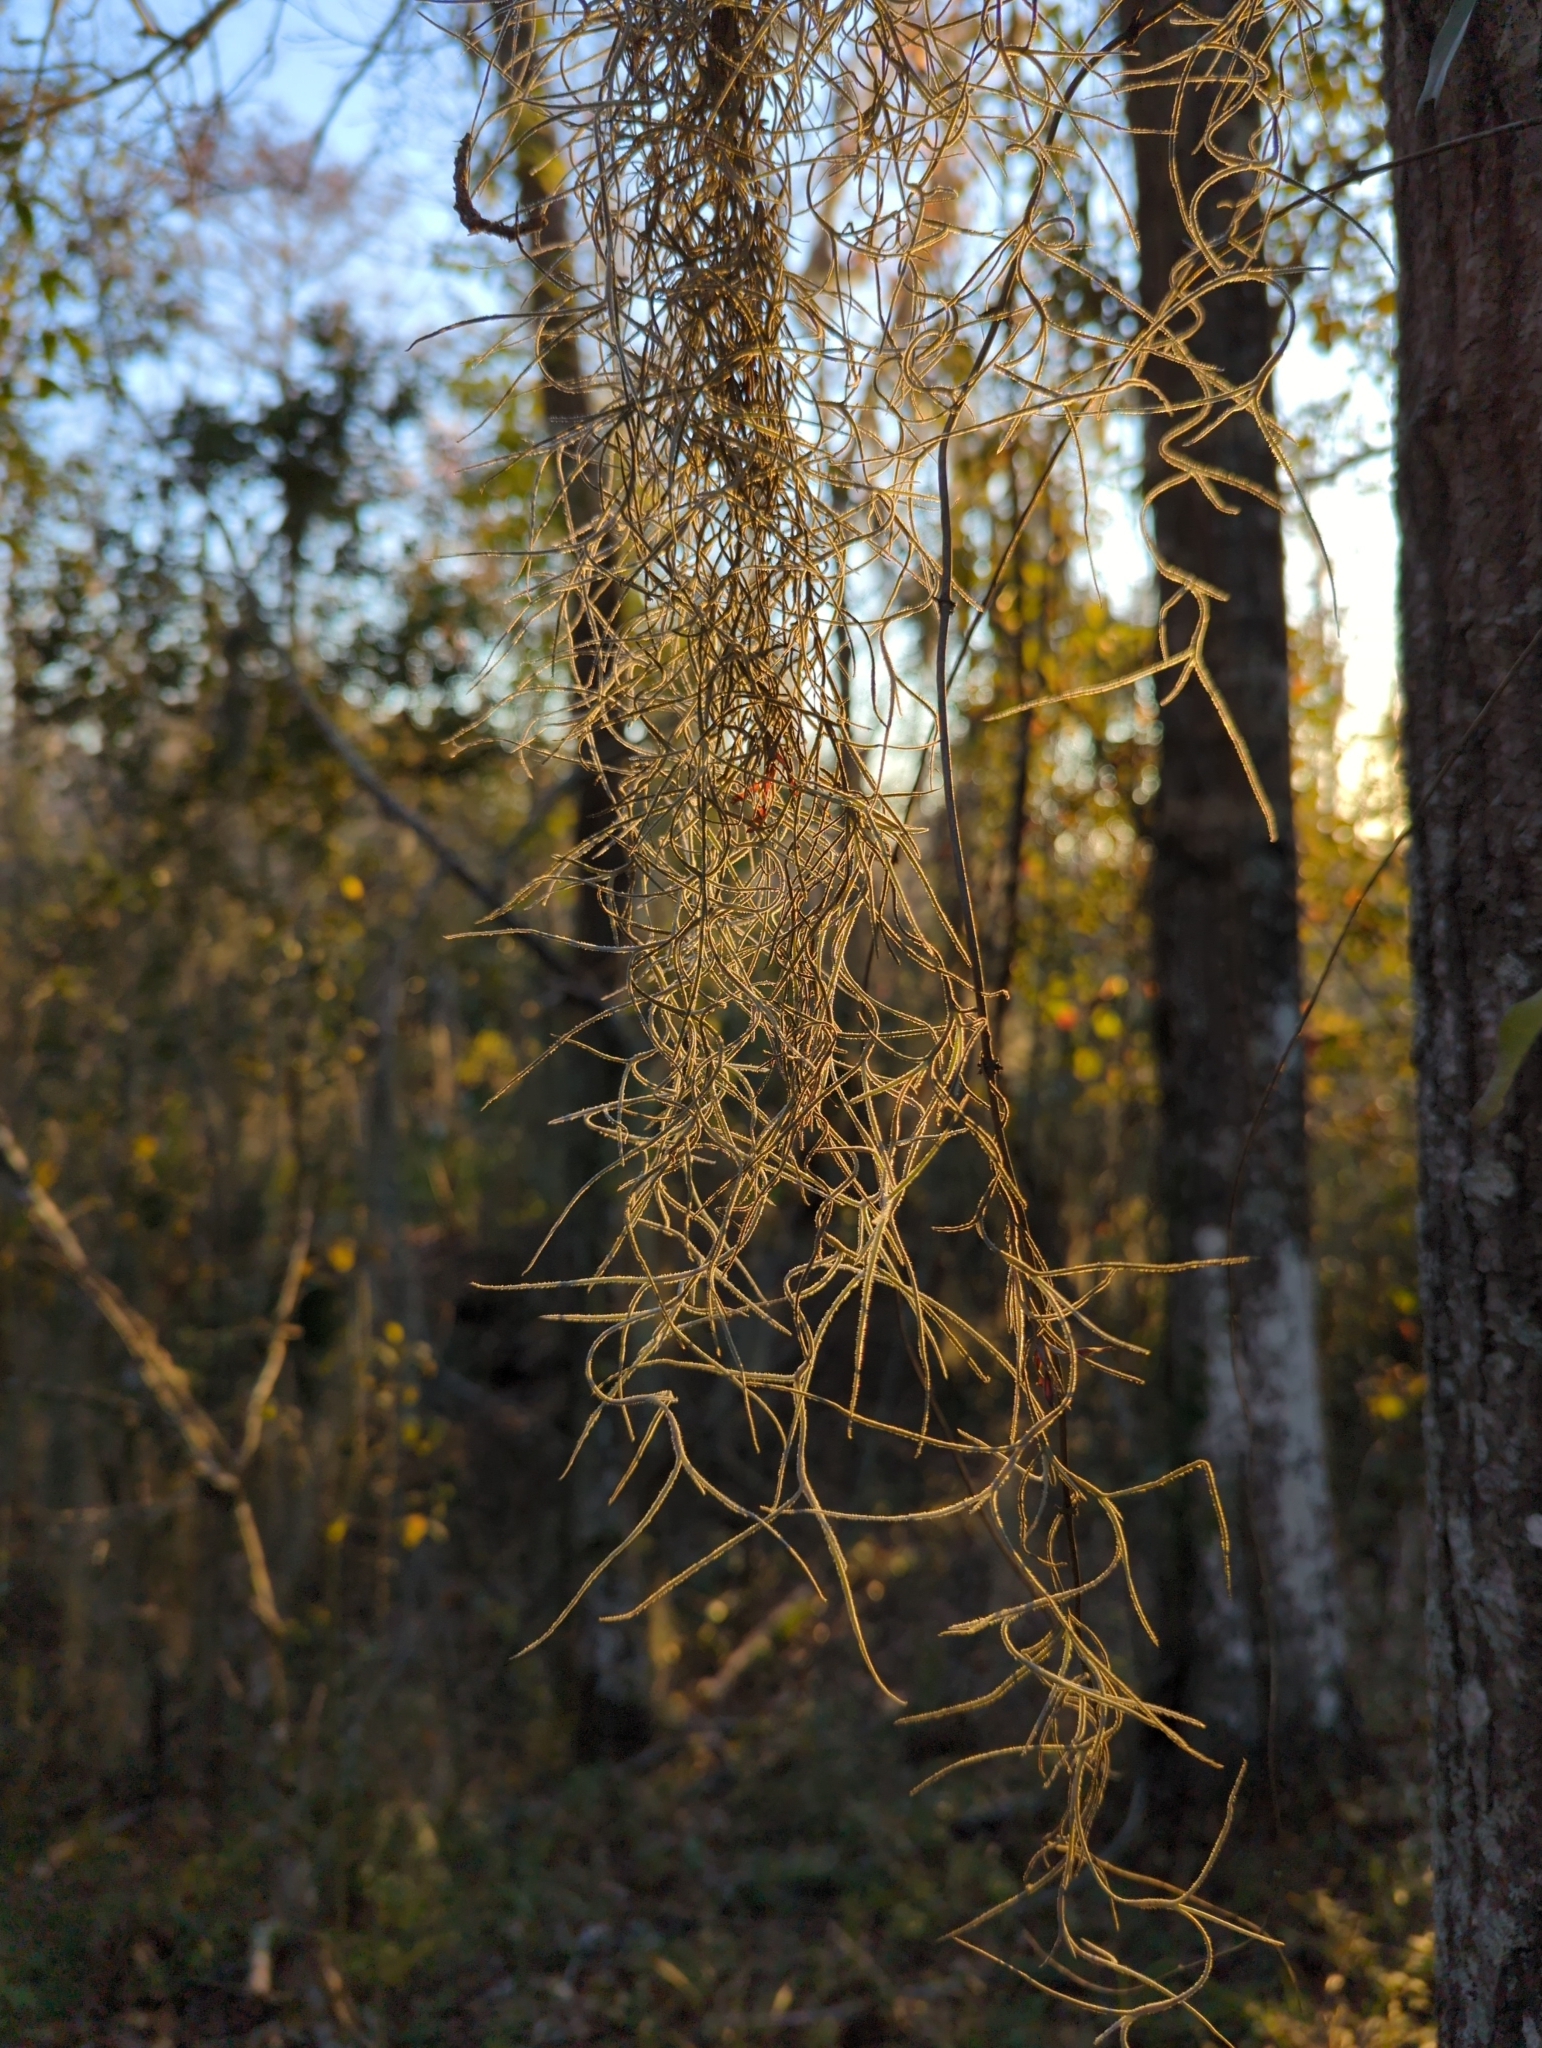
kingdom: Plantae
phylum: Tracheophyta
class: Liliopsida
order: Poales
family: Bromeliaceae
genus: Tillandsia
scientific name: Tillandsia usneoides
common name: Spanish moss
